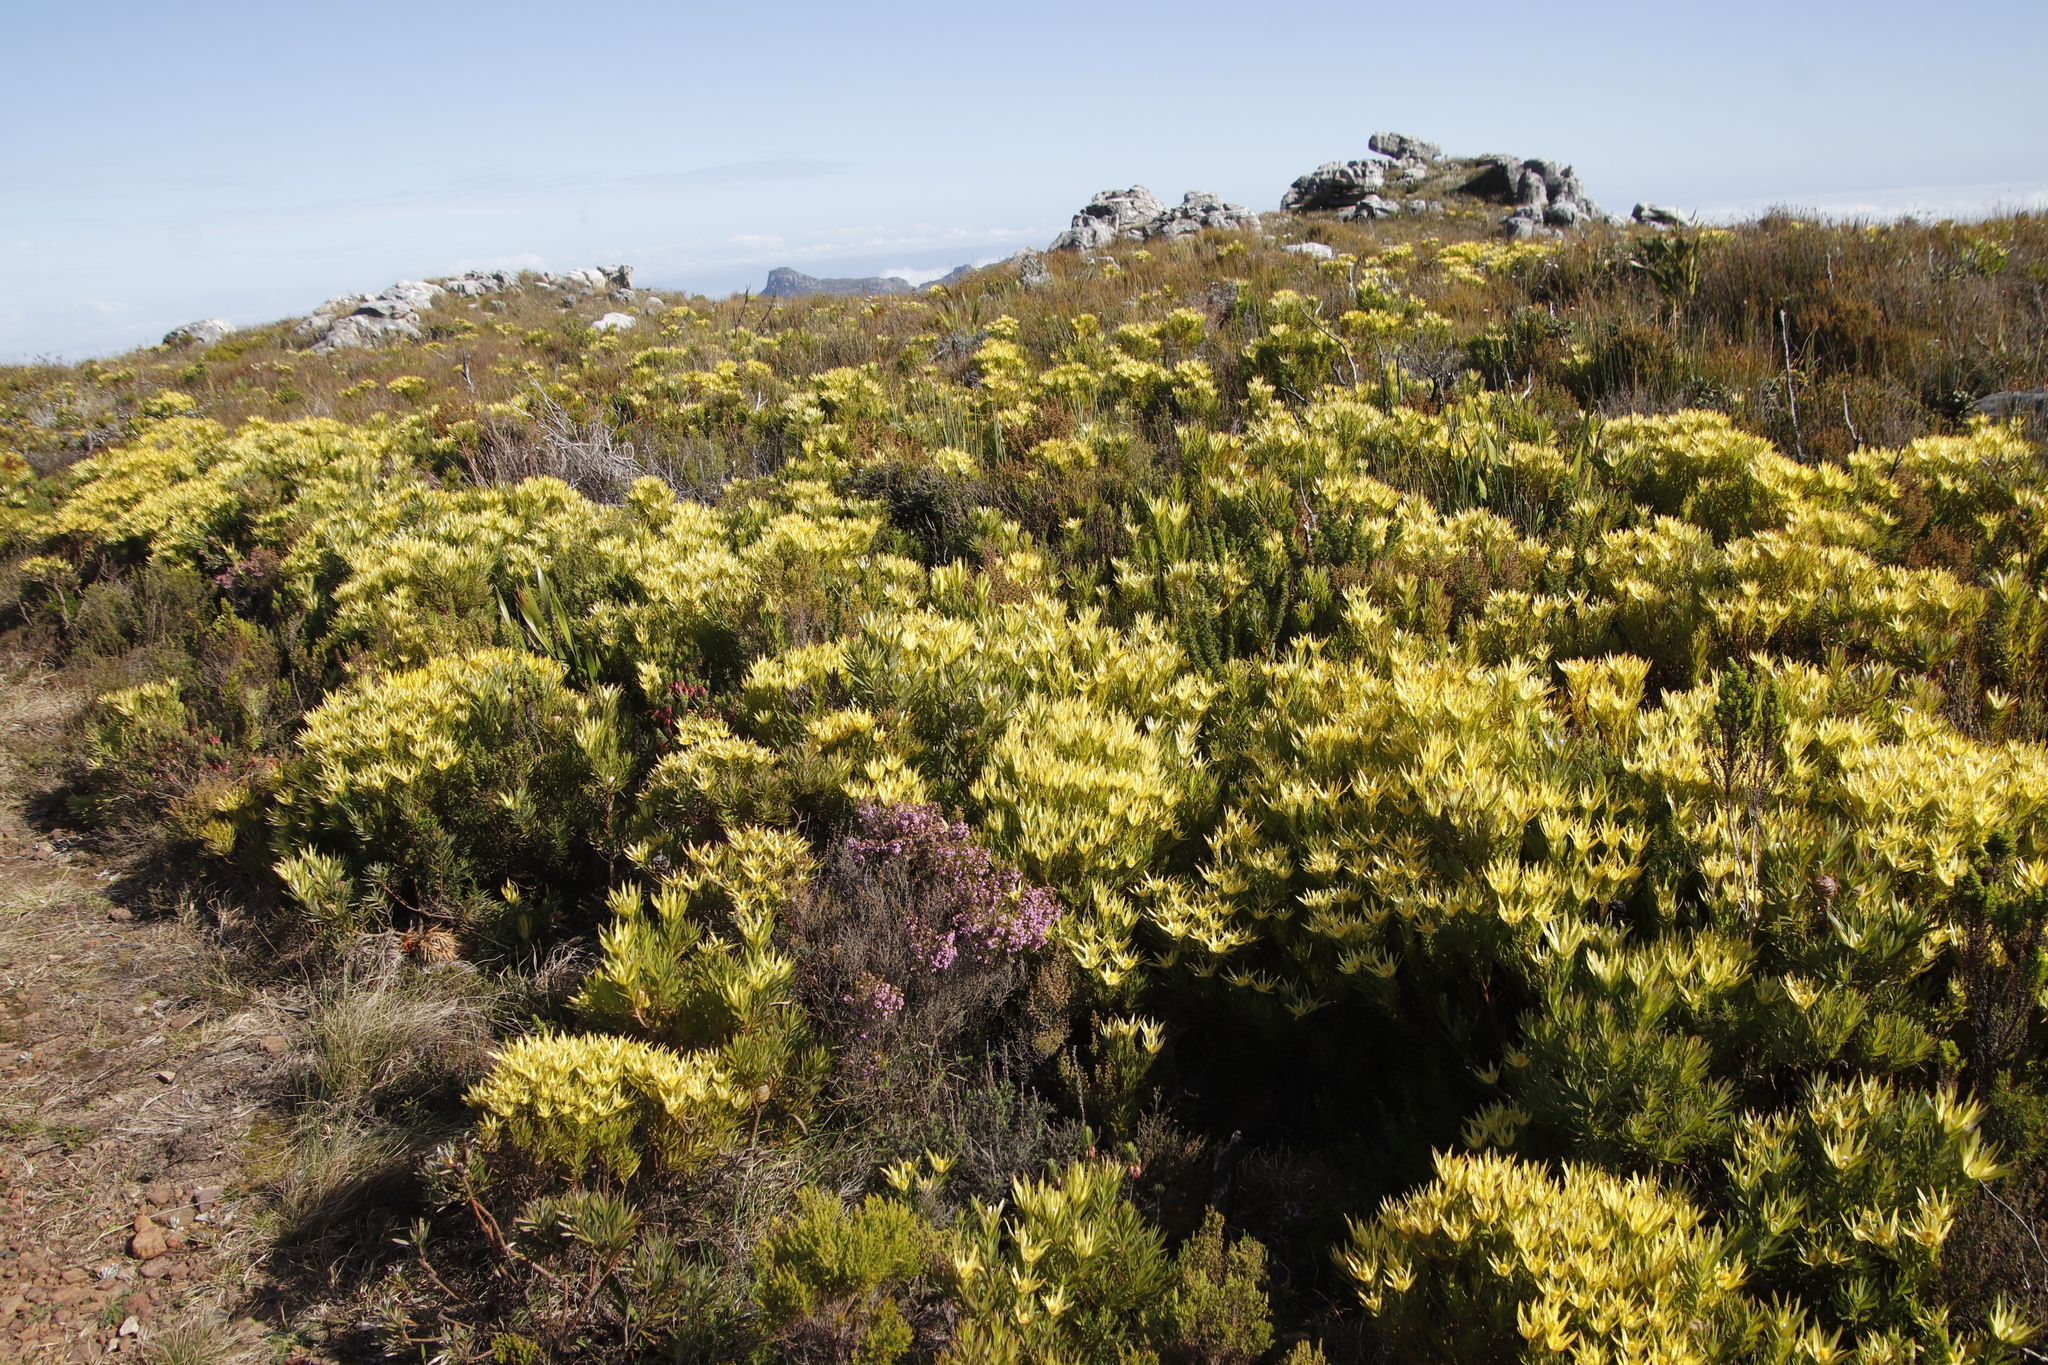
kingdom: Plantae
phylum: Tracheophyta
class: Magnoliopsida
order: Proteales
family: Proteaceae
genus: Leucadendron
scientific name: Leucadendron xanthoconus
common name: Sickle-leaf conebush
